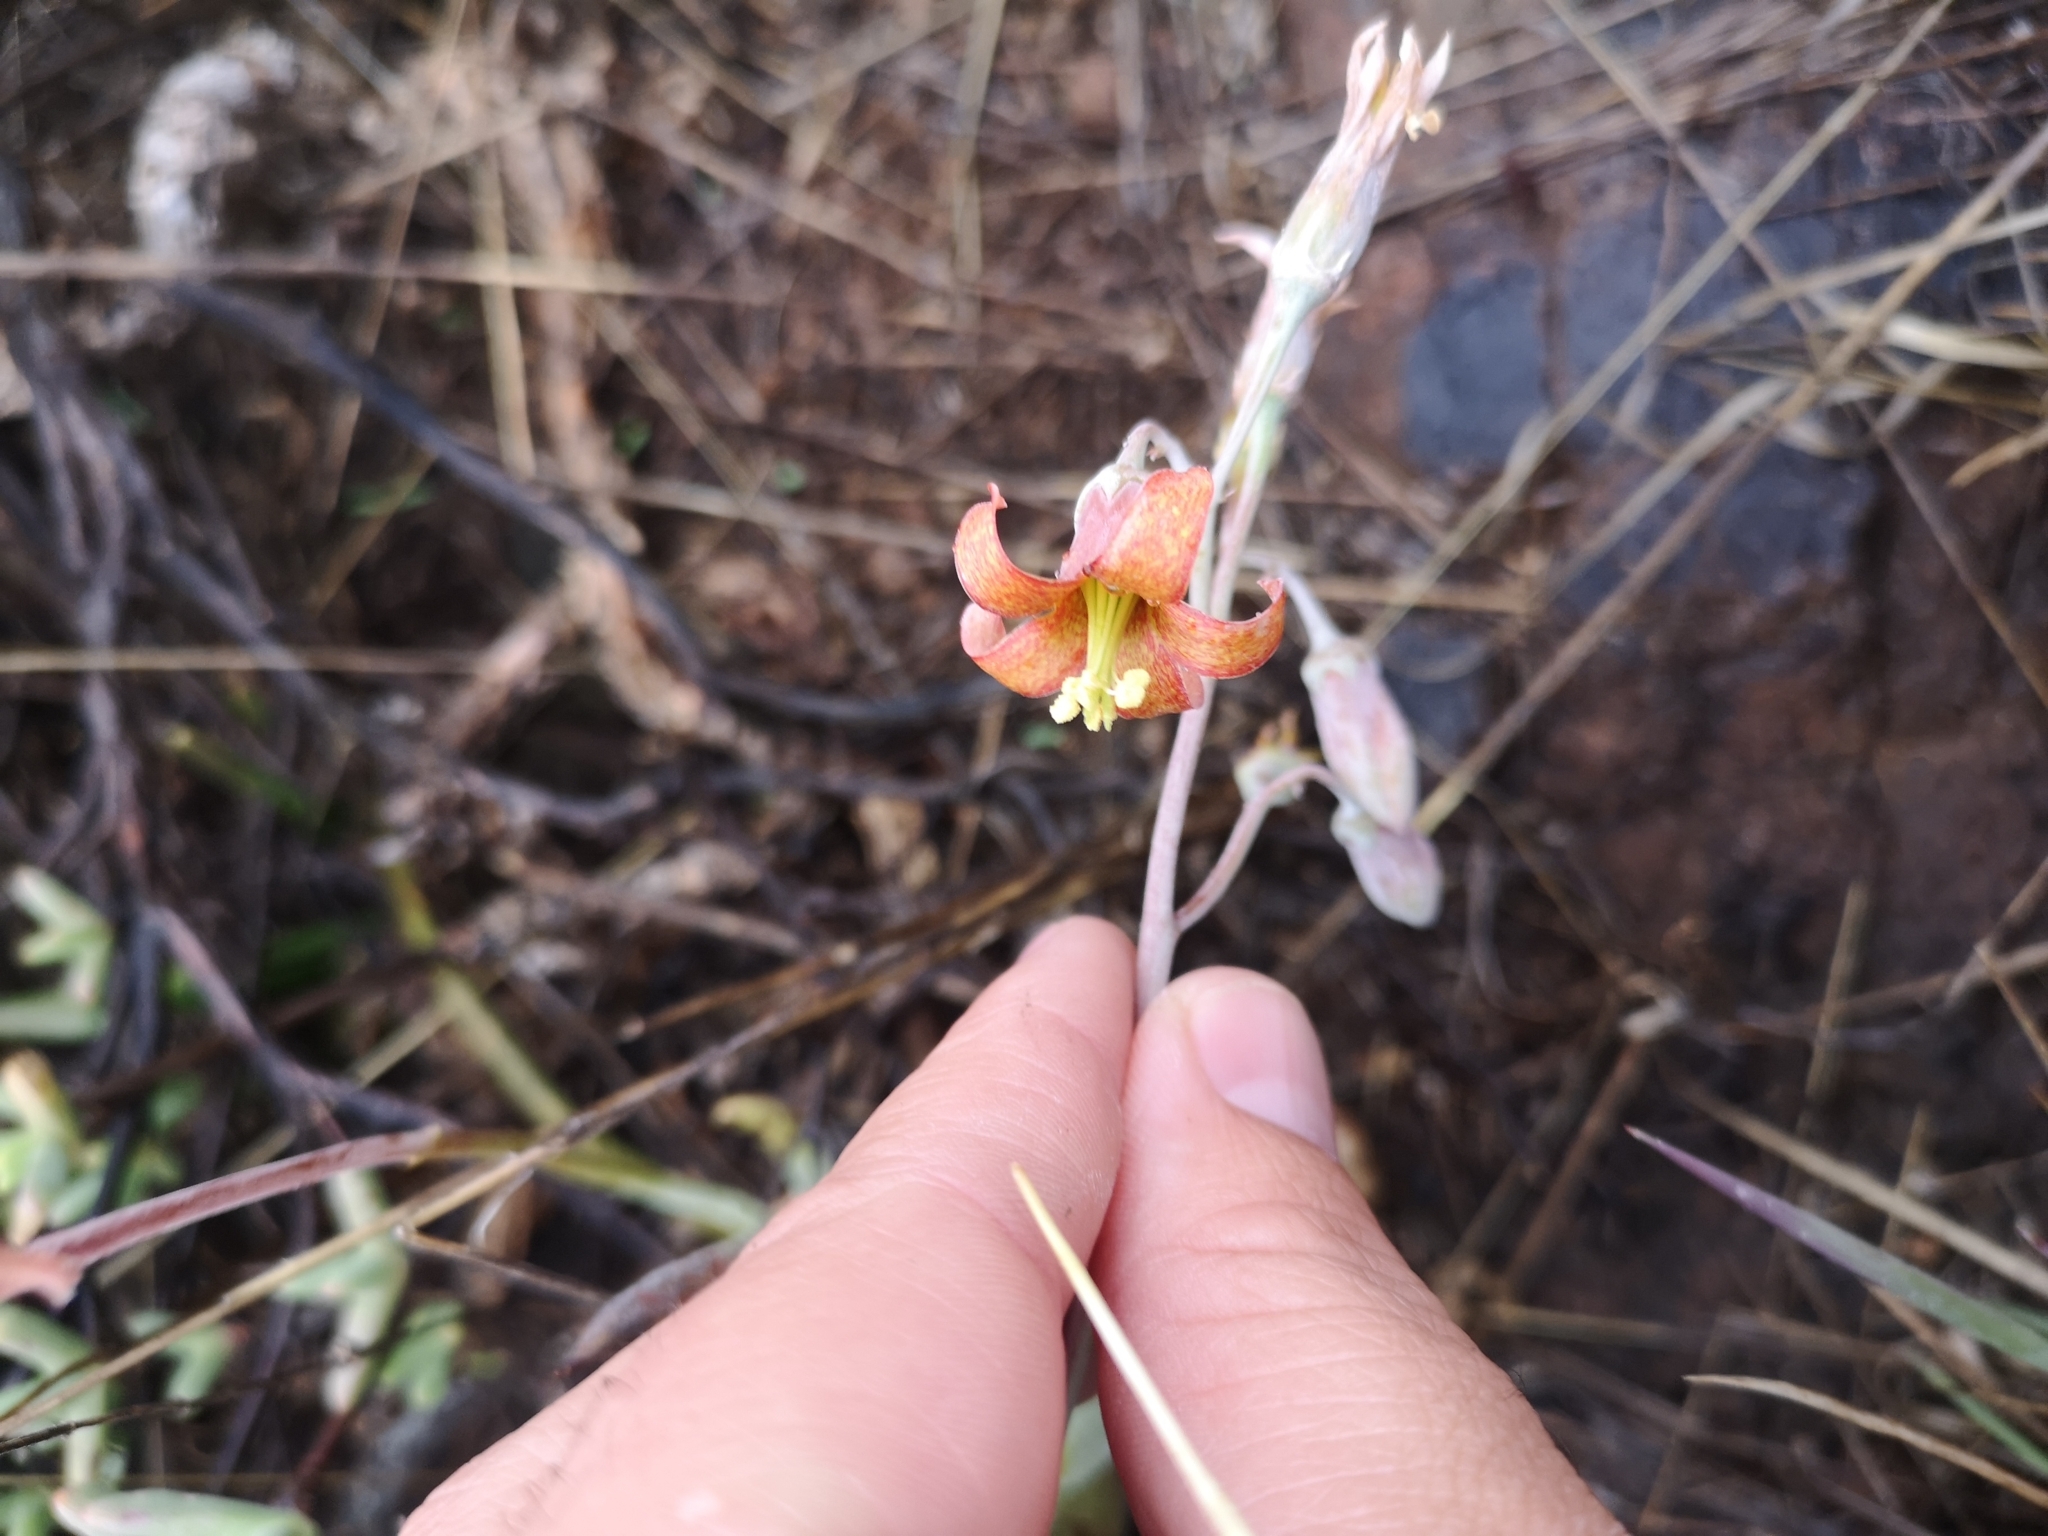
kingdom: Plantae
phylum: Tracheophyta
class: Magnoliopsida
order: Saxifragales
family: Crassulaceae
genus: Cotyledon
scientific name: Cotyledon orbiculata
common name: Pig's ear
